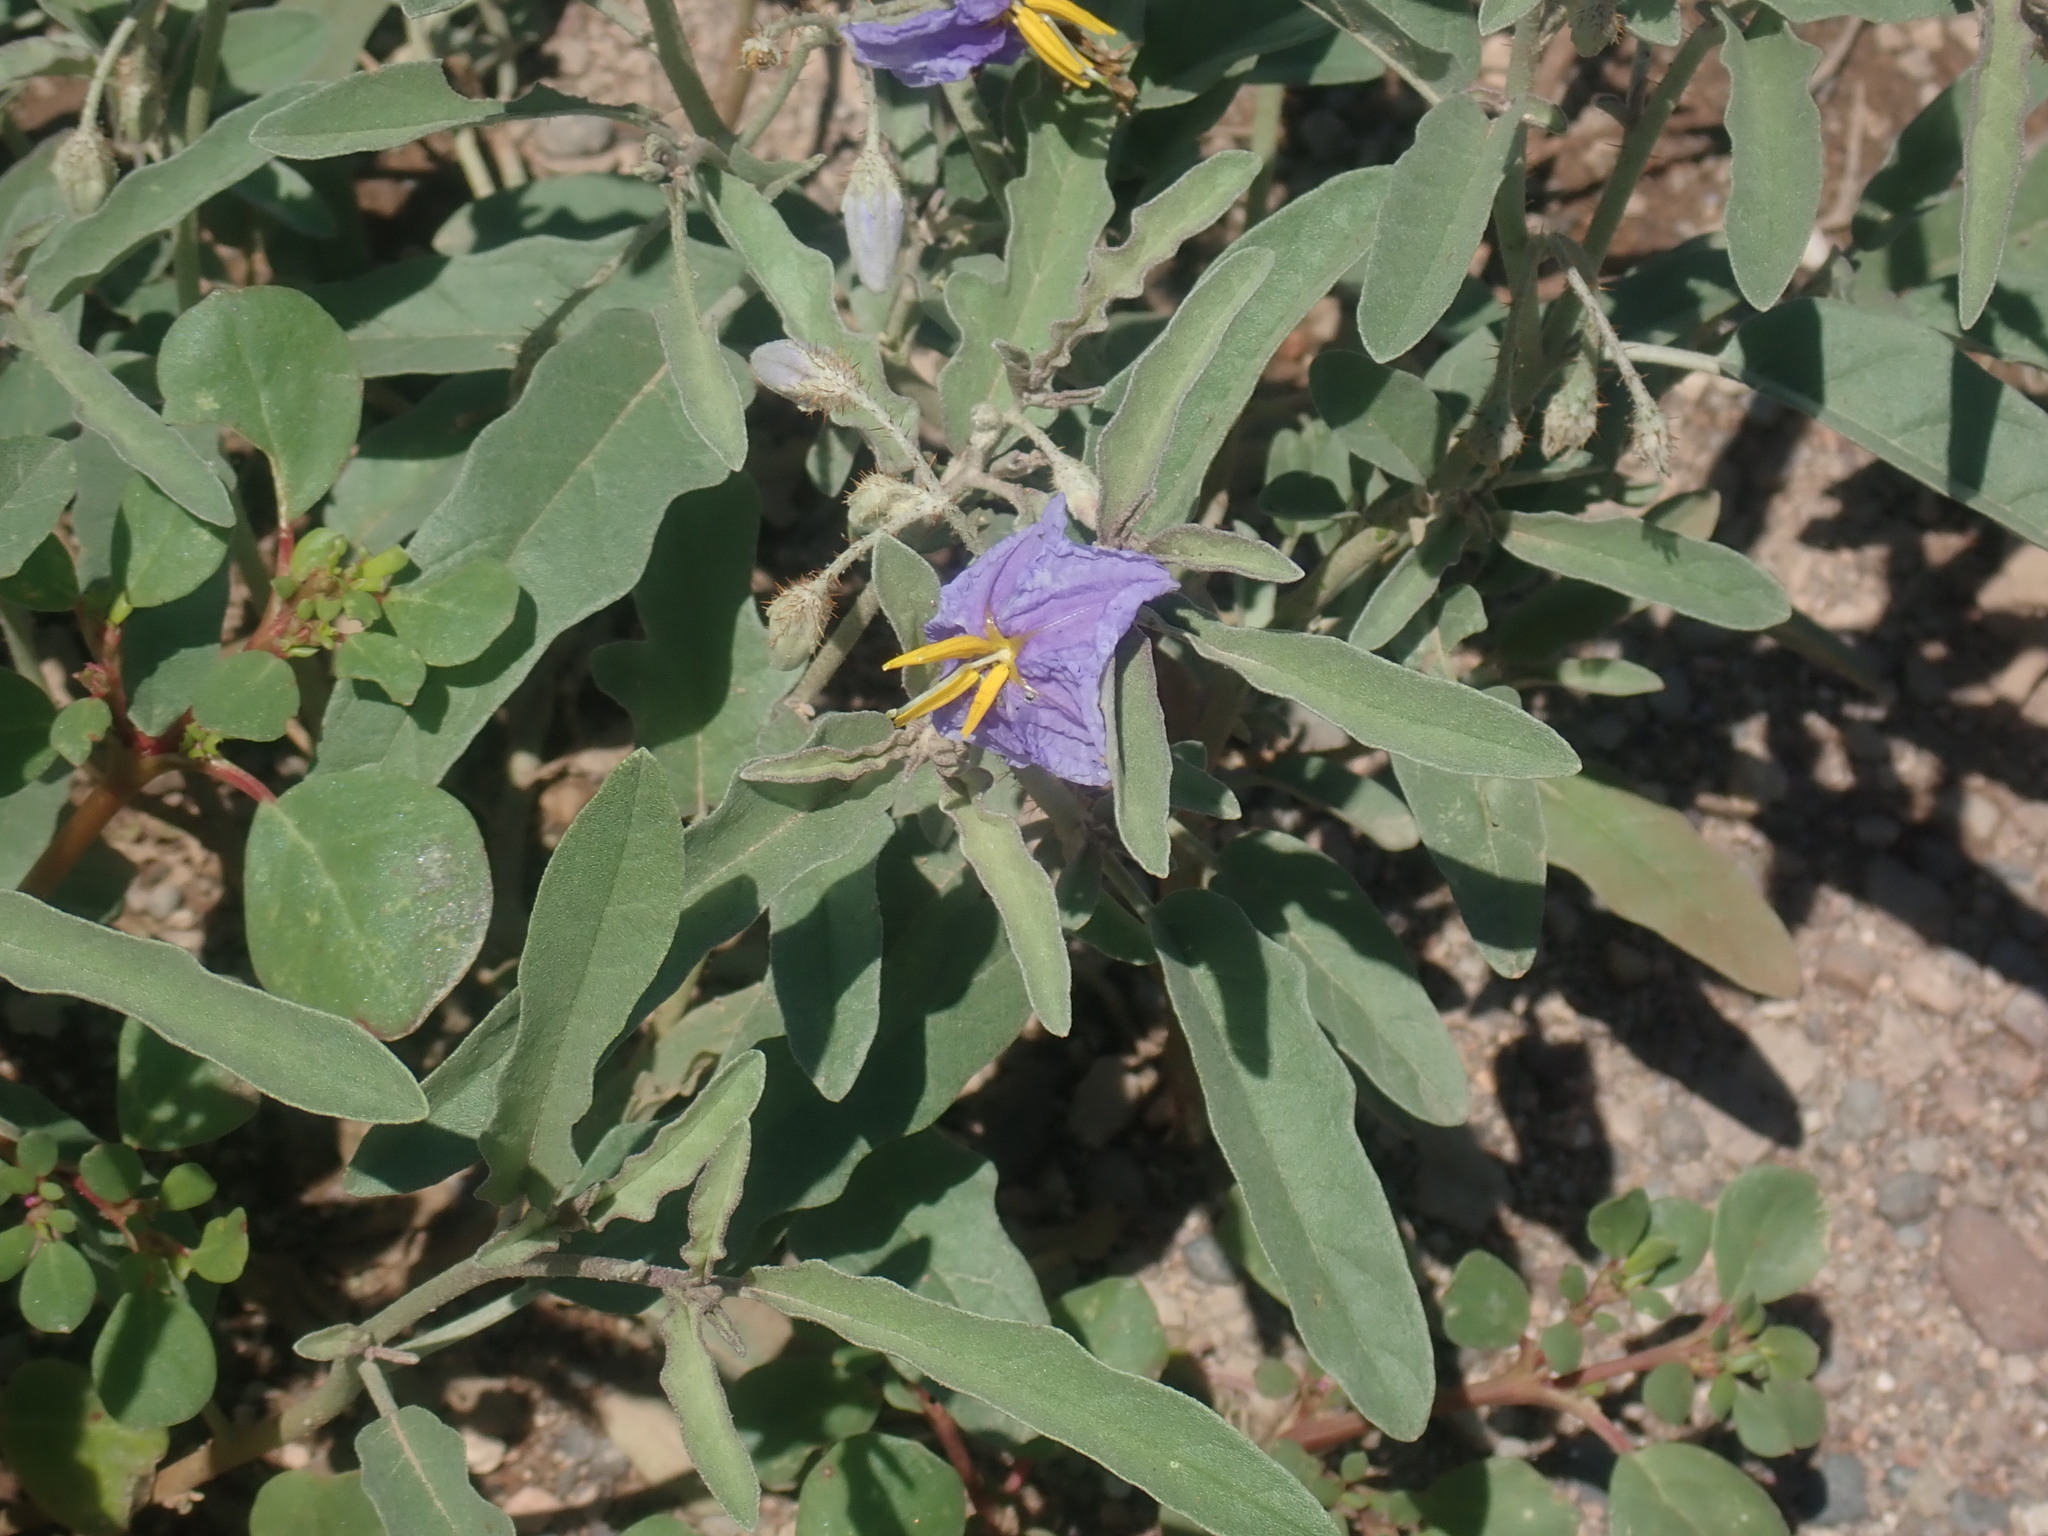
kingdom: Plantae
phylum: Tracheophyta
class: Magnoliopsida
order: Solanales
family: Solanaceae
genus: Solanum
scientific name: Solanum elaeagnifolium
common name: Silverleaf nightshade
